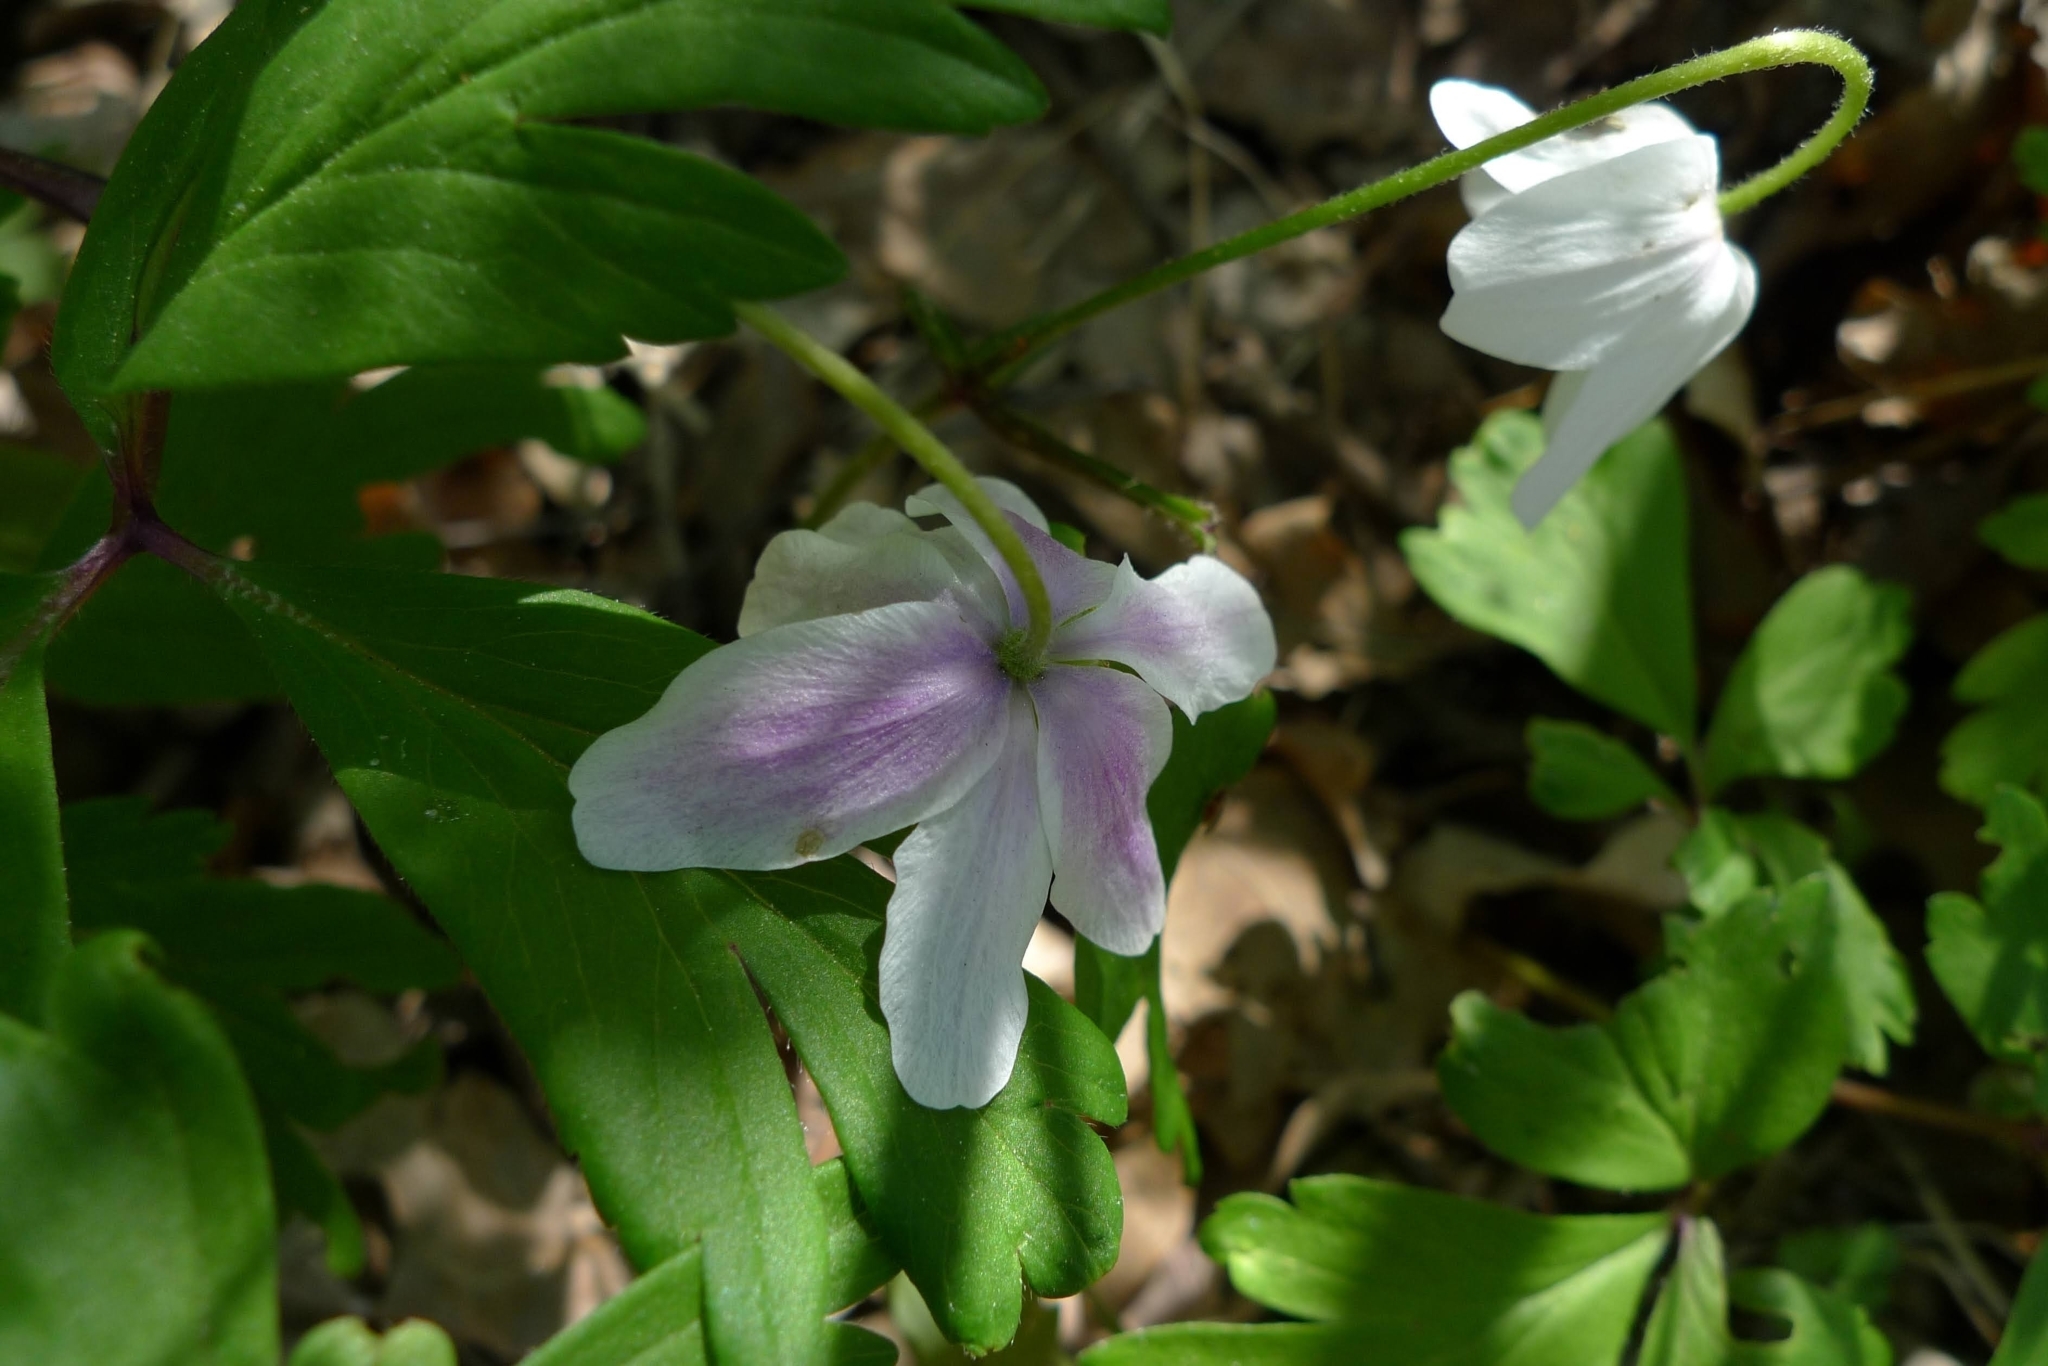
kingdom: Plantae
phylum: Tracheophyta
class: Magnoliopsida
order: Ranunculales
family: Ranunculaceae
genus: Anemone
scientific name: Anemone nemorosa
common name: Wood anemone
